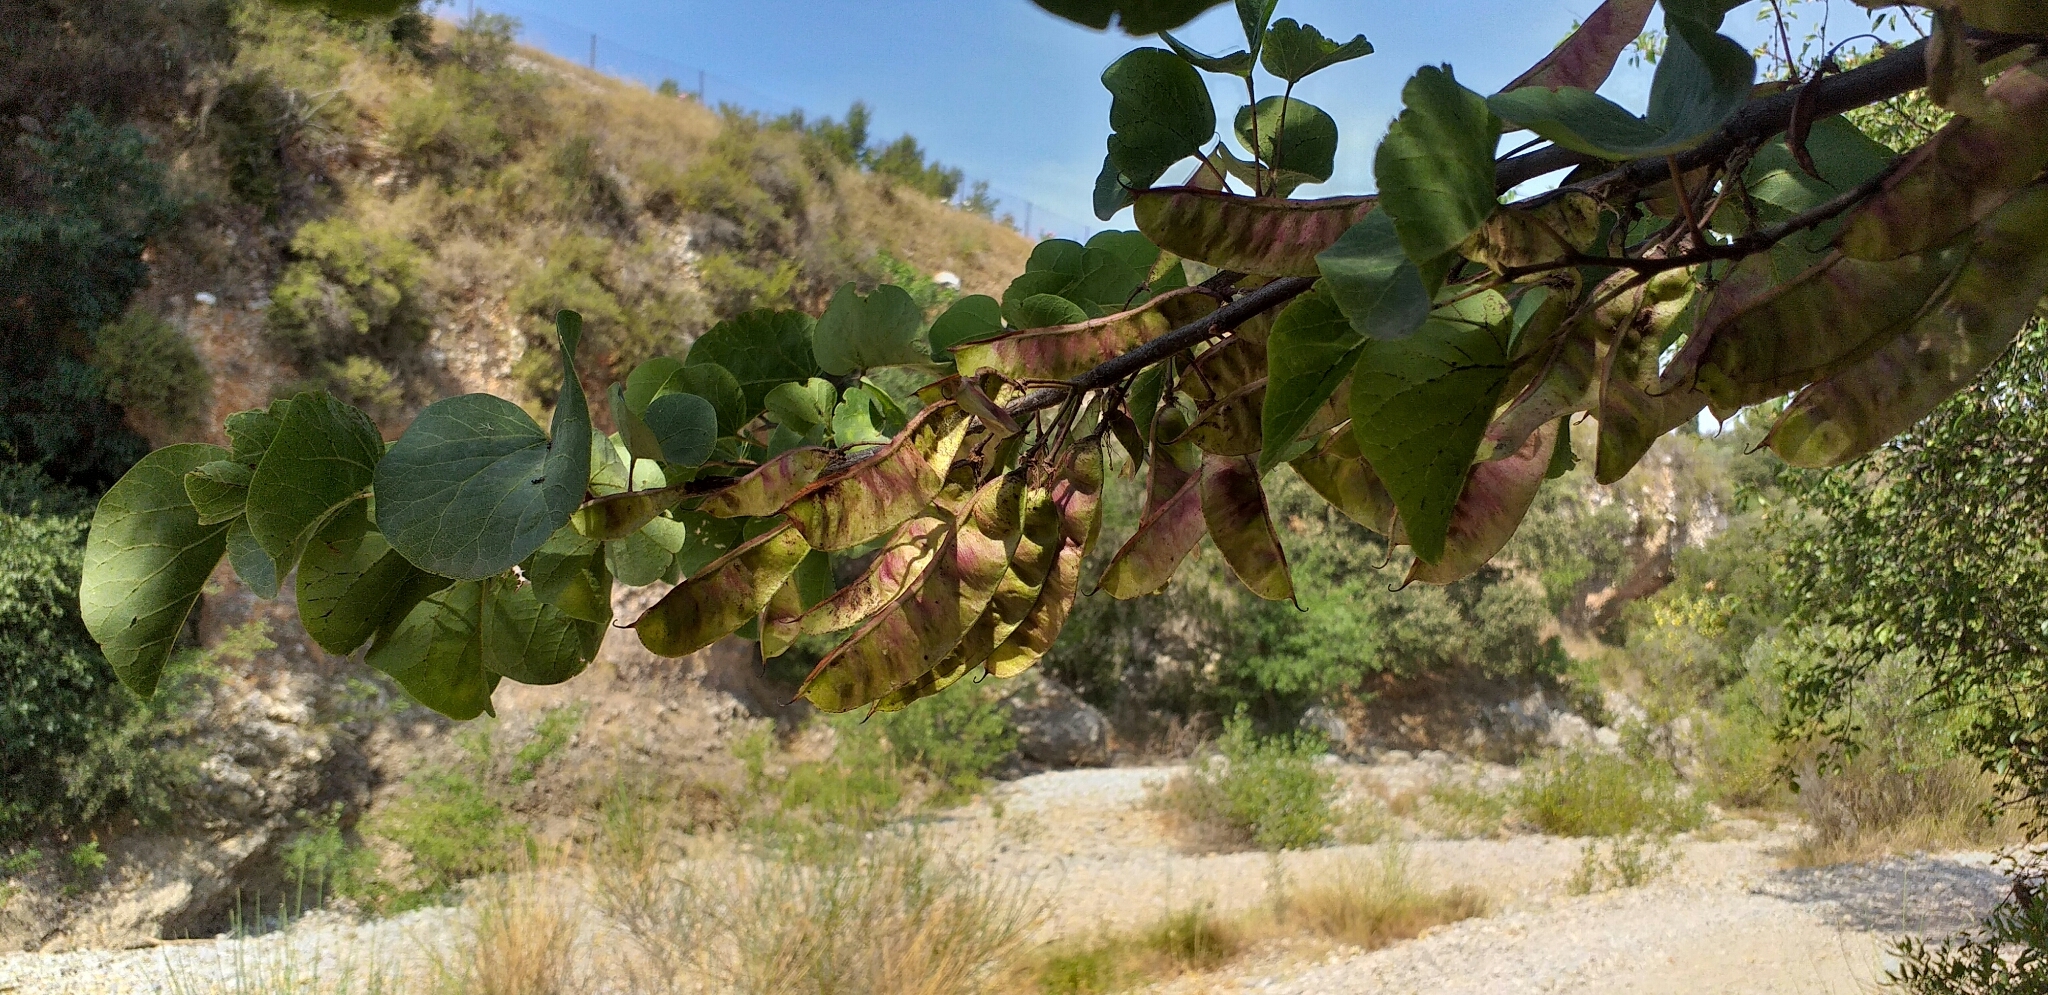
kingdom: Plantae
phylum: Tracheophyta
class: Magnoliopsida
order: Fabales
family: Fabaceae
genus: Cercis
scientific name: Cercis siliquastrum
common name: Judas tree
